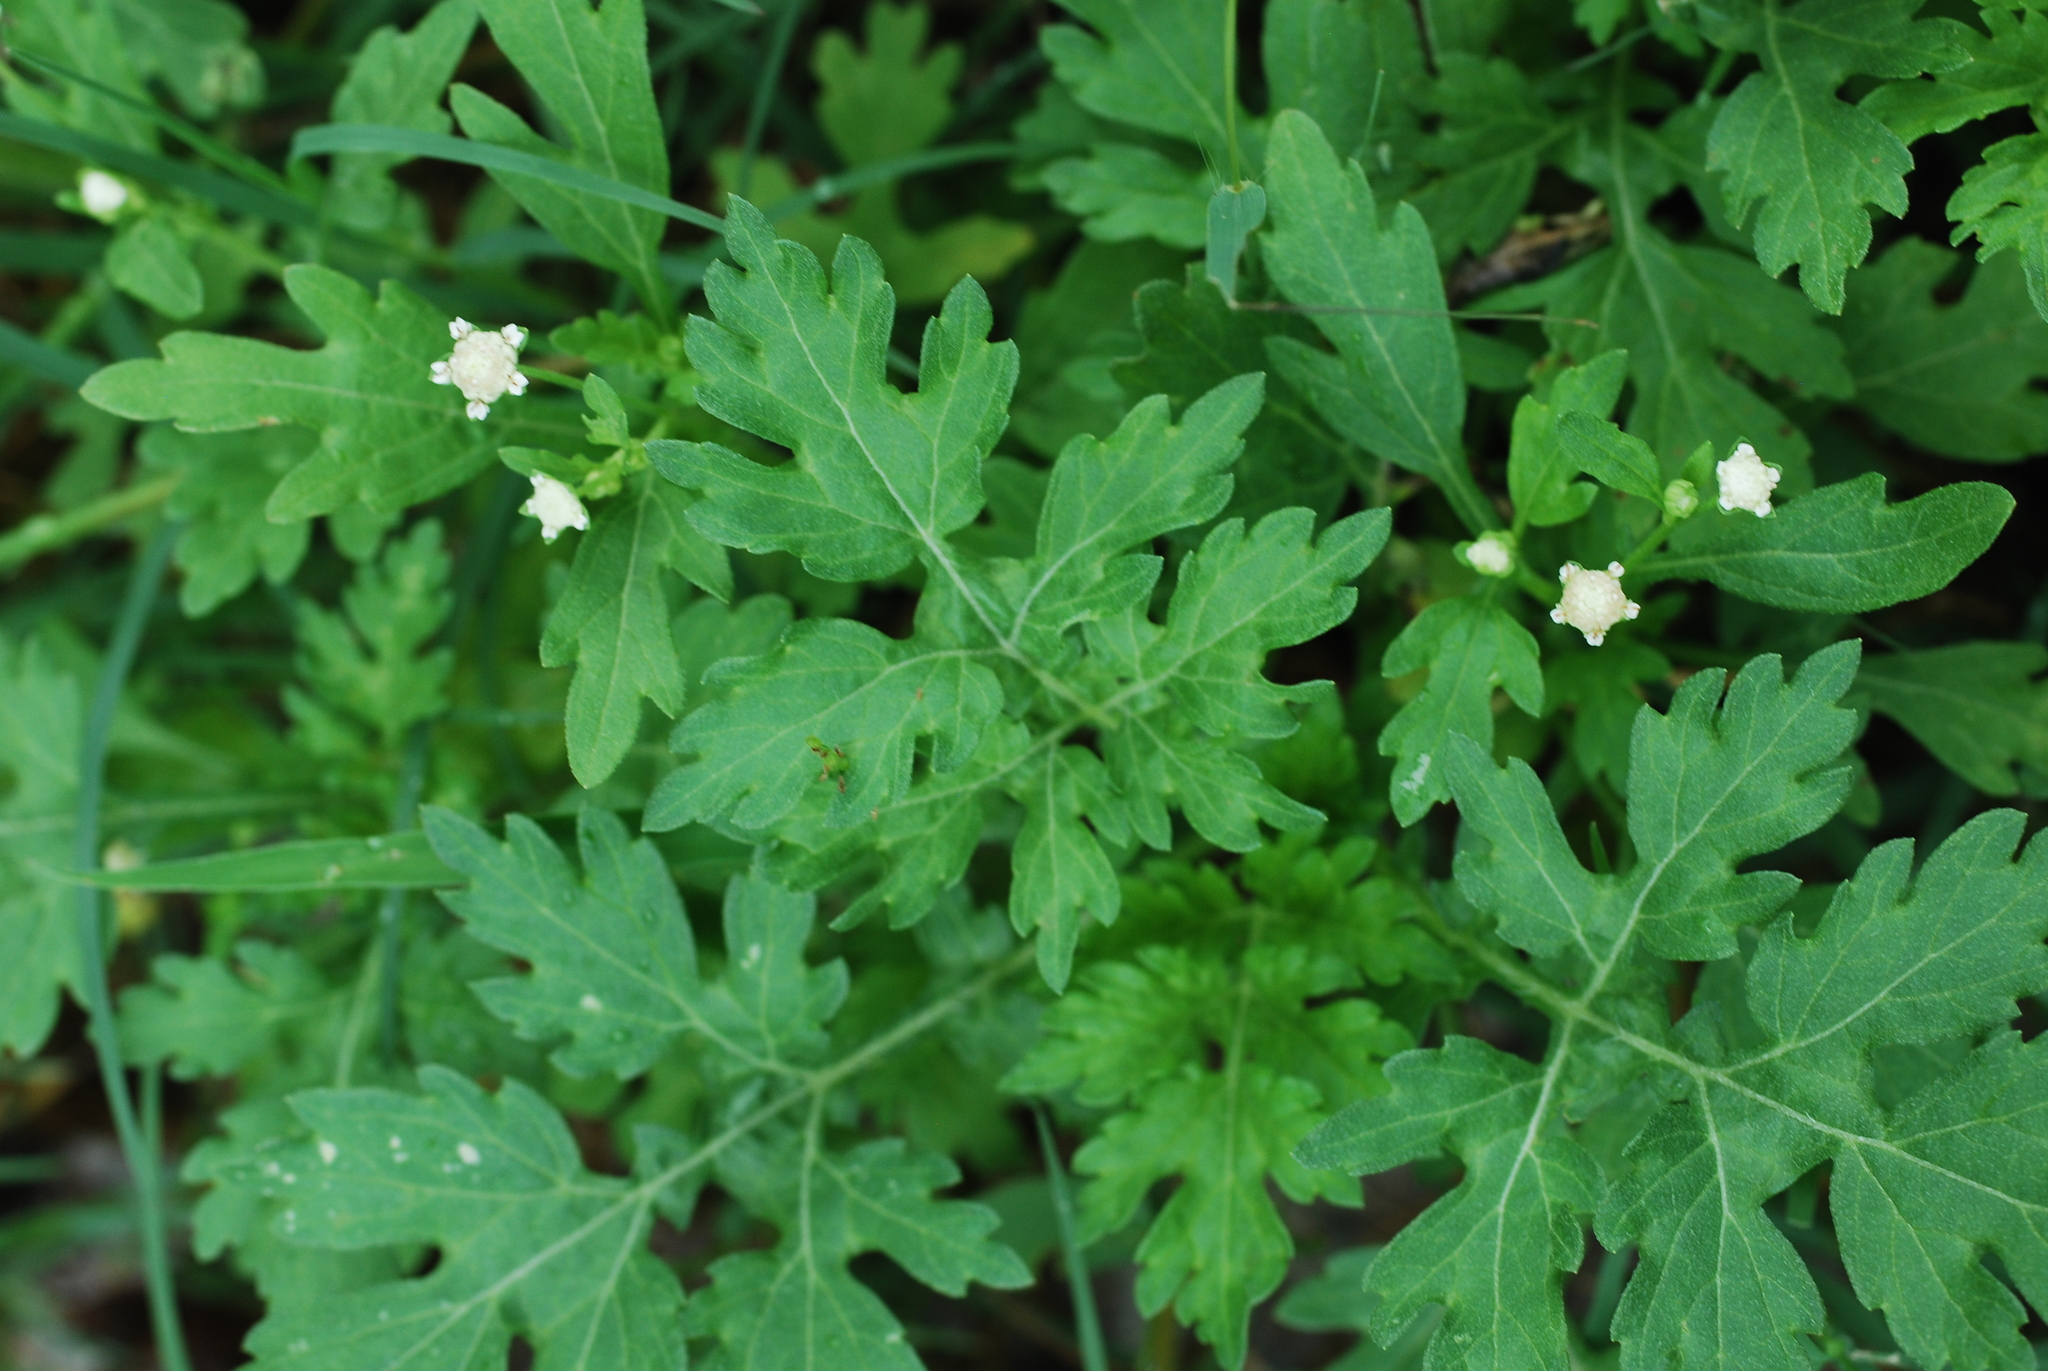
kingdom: Plantae
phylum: Tracheophyta
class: Magnoliopsida
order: Asterales
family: Asteraceae
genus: Parthenium
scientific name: Parthenium hysterophorus
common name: Santa maria feverfew
